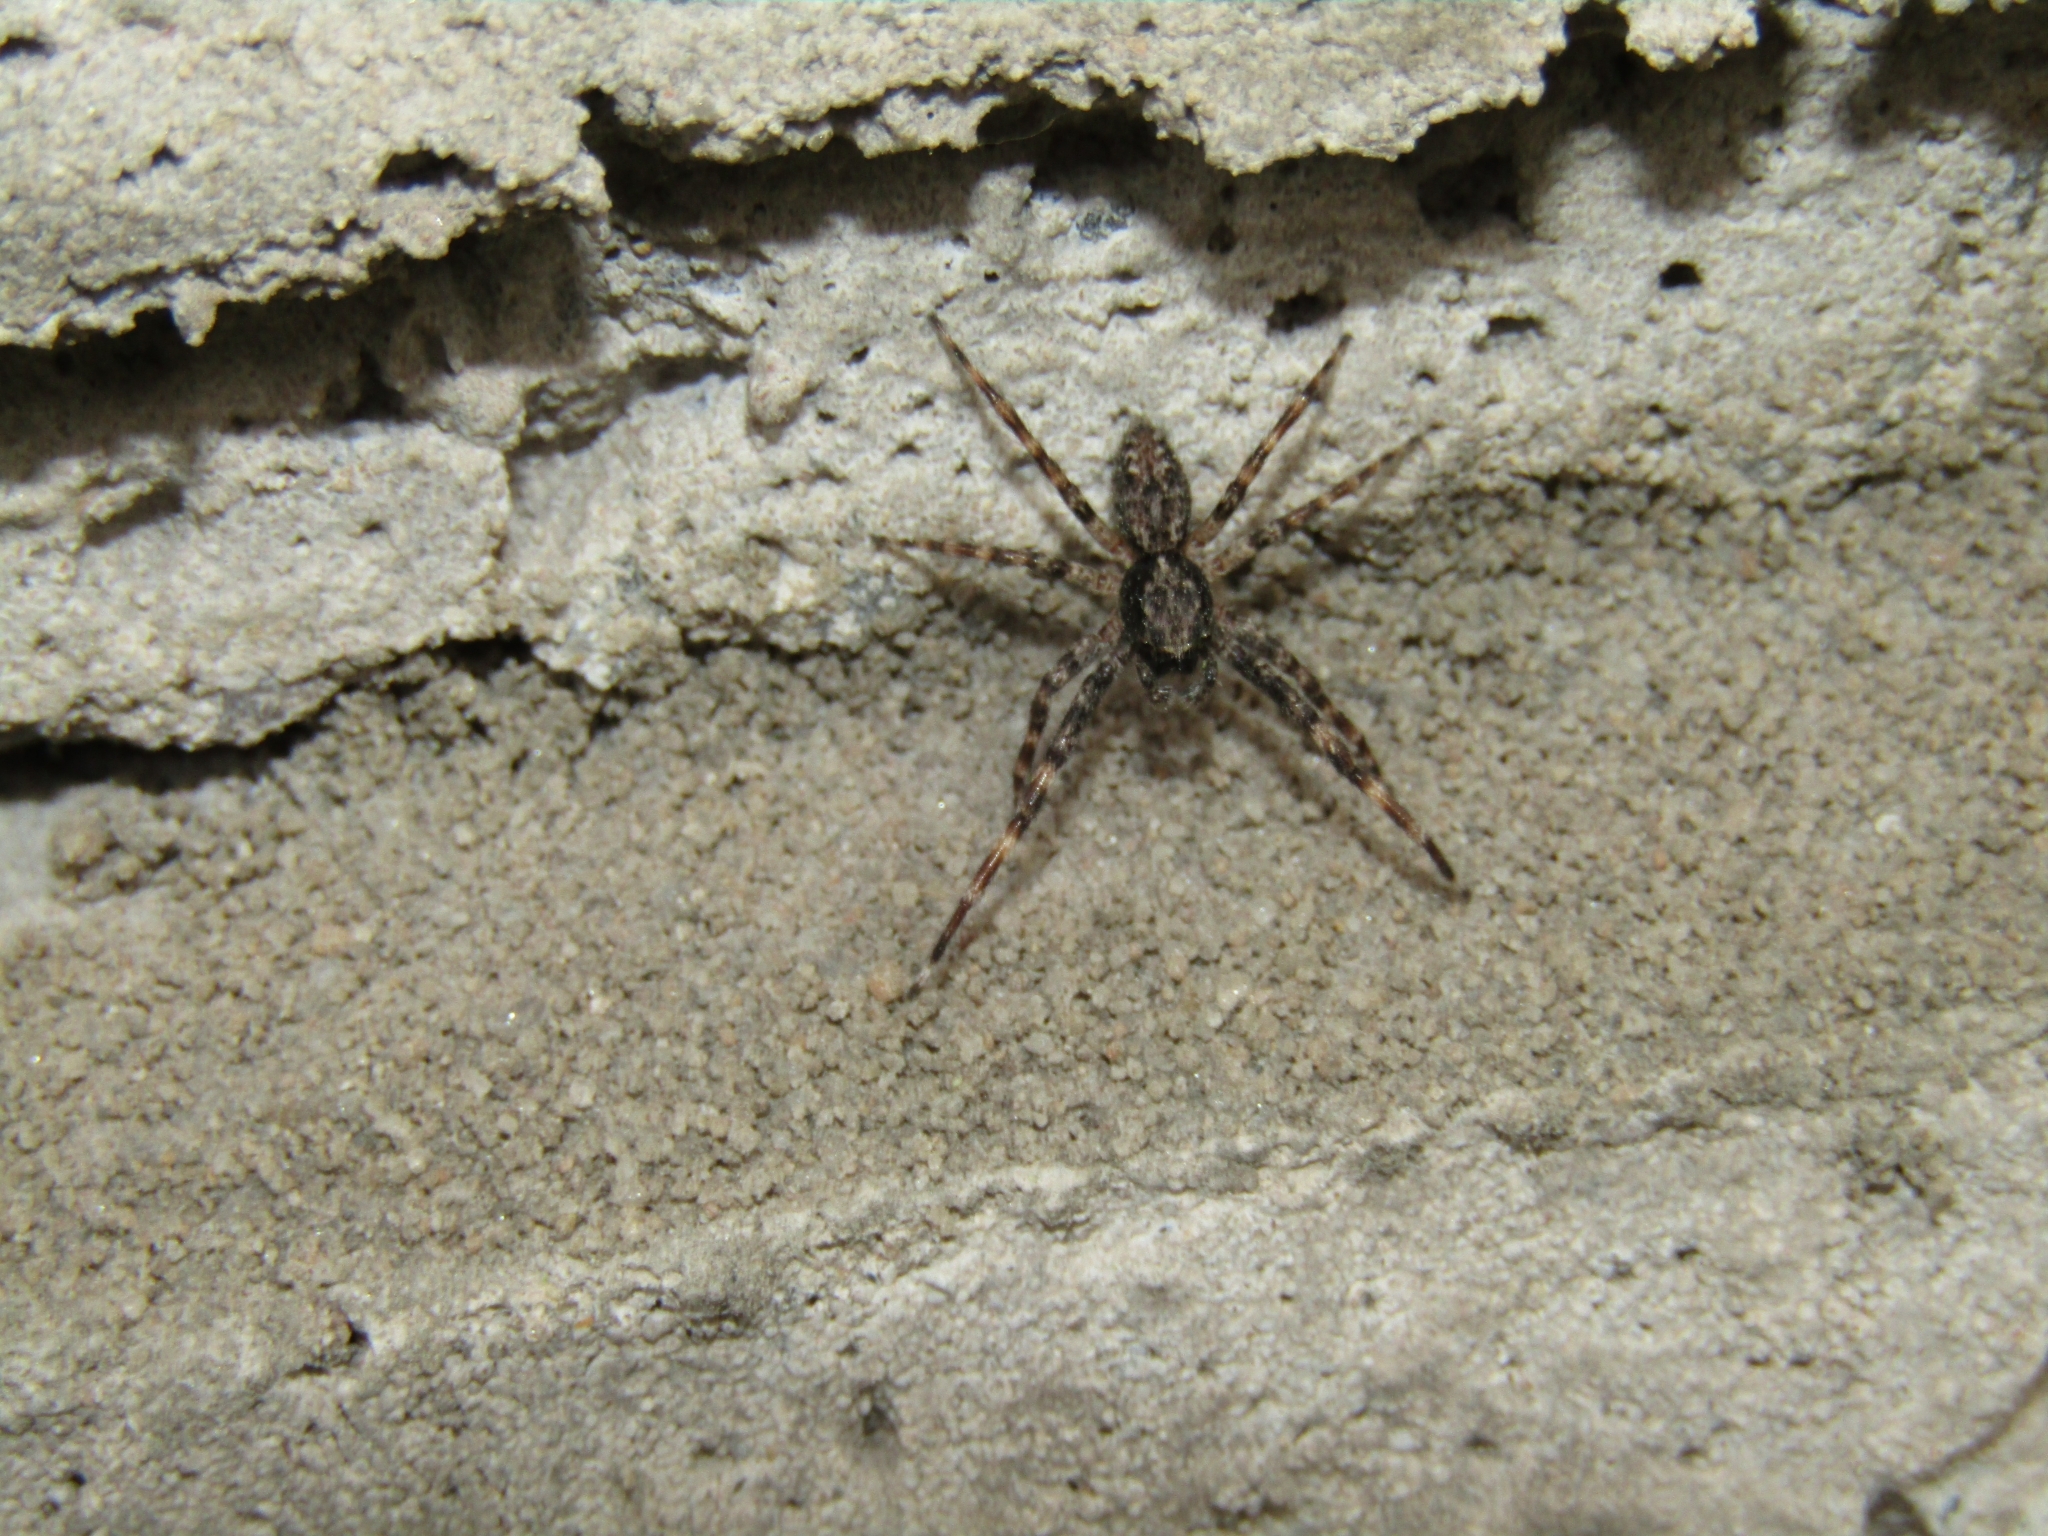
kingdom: Animalia
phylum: Arthropoda
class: Arachnida
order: Araneae
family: Salticidae
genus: Titanattus
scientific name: Titanattus andinus
